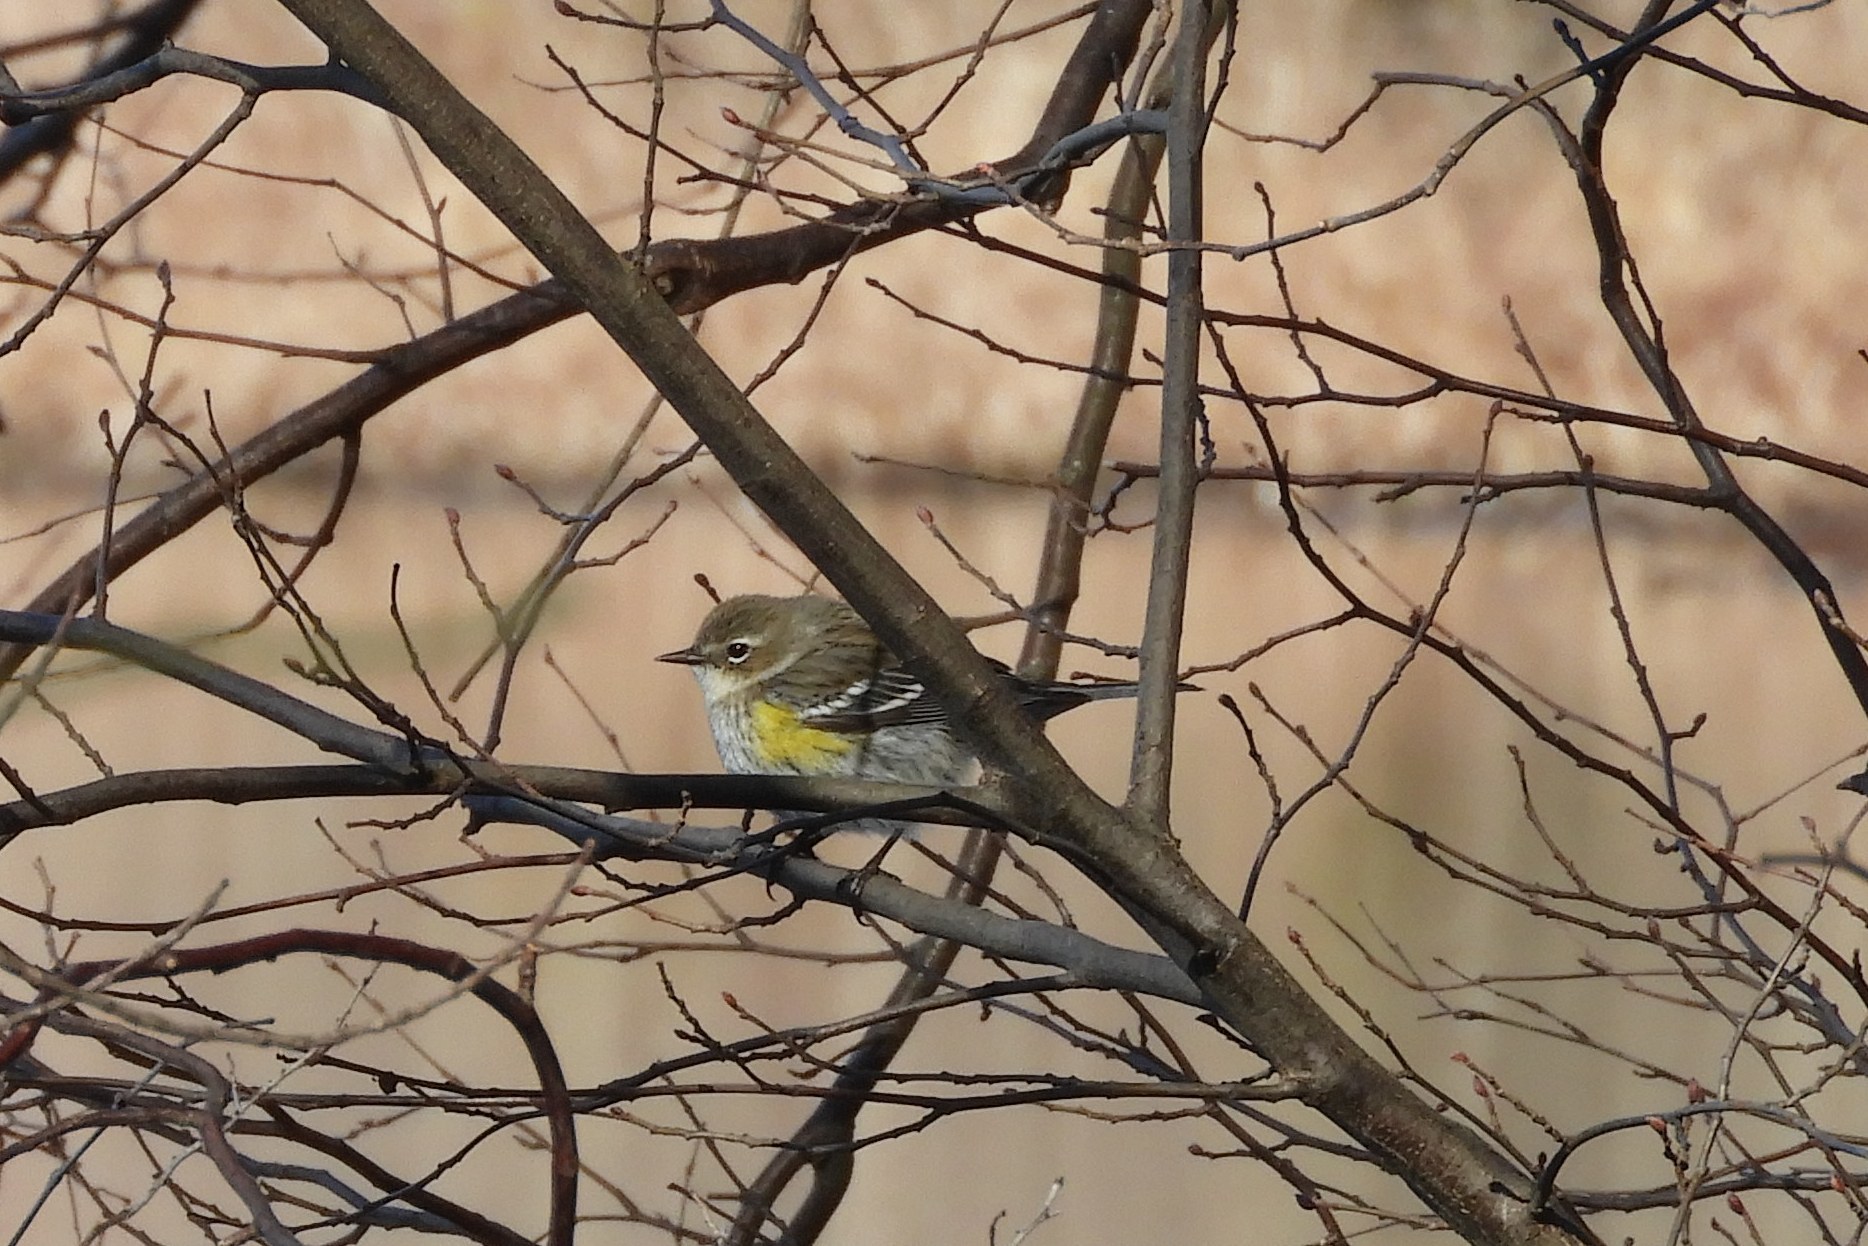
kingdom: Animalia
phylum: Chordata
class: Aves
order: Passeriformes
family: Parulidae
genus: Setophaga
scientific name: Setophaga coronata
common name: Myrtle warbler
